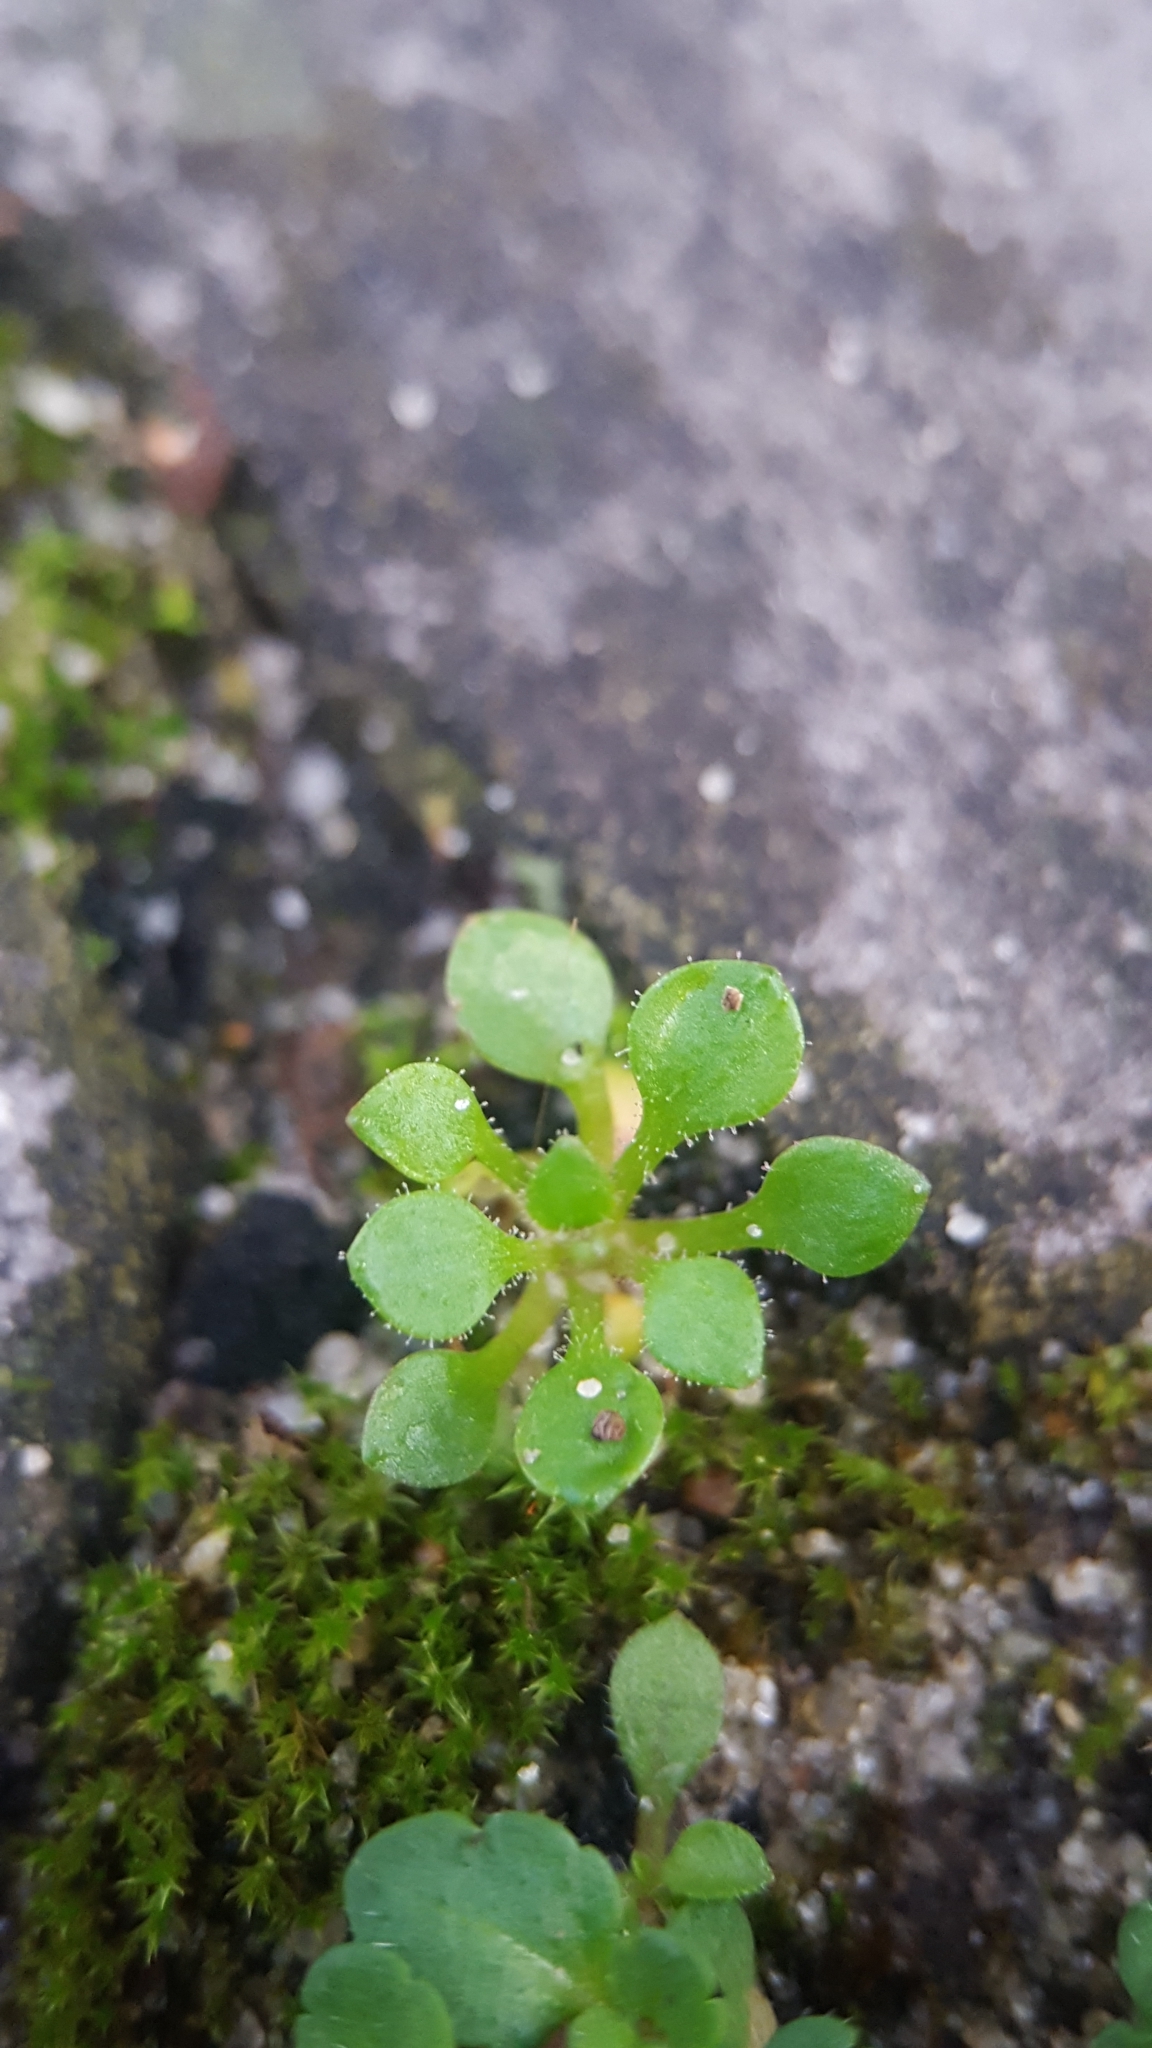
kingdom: Plantae
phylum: Tracheophyta
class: Magnoliopsida
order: Saxifragales
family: Saxifragaceae
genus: Saxifraga
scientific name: Saxifraga tridactylites
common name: Rue-leaved saxifrage
